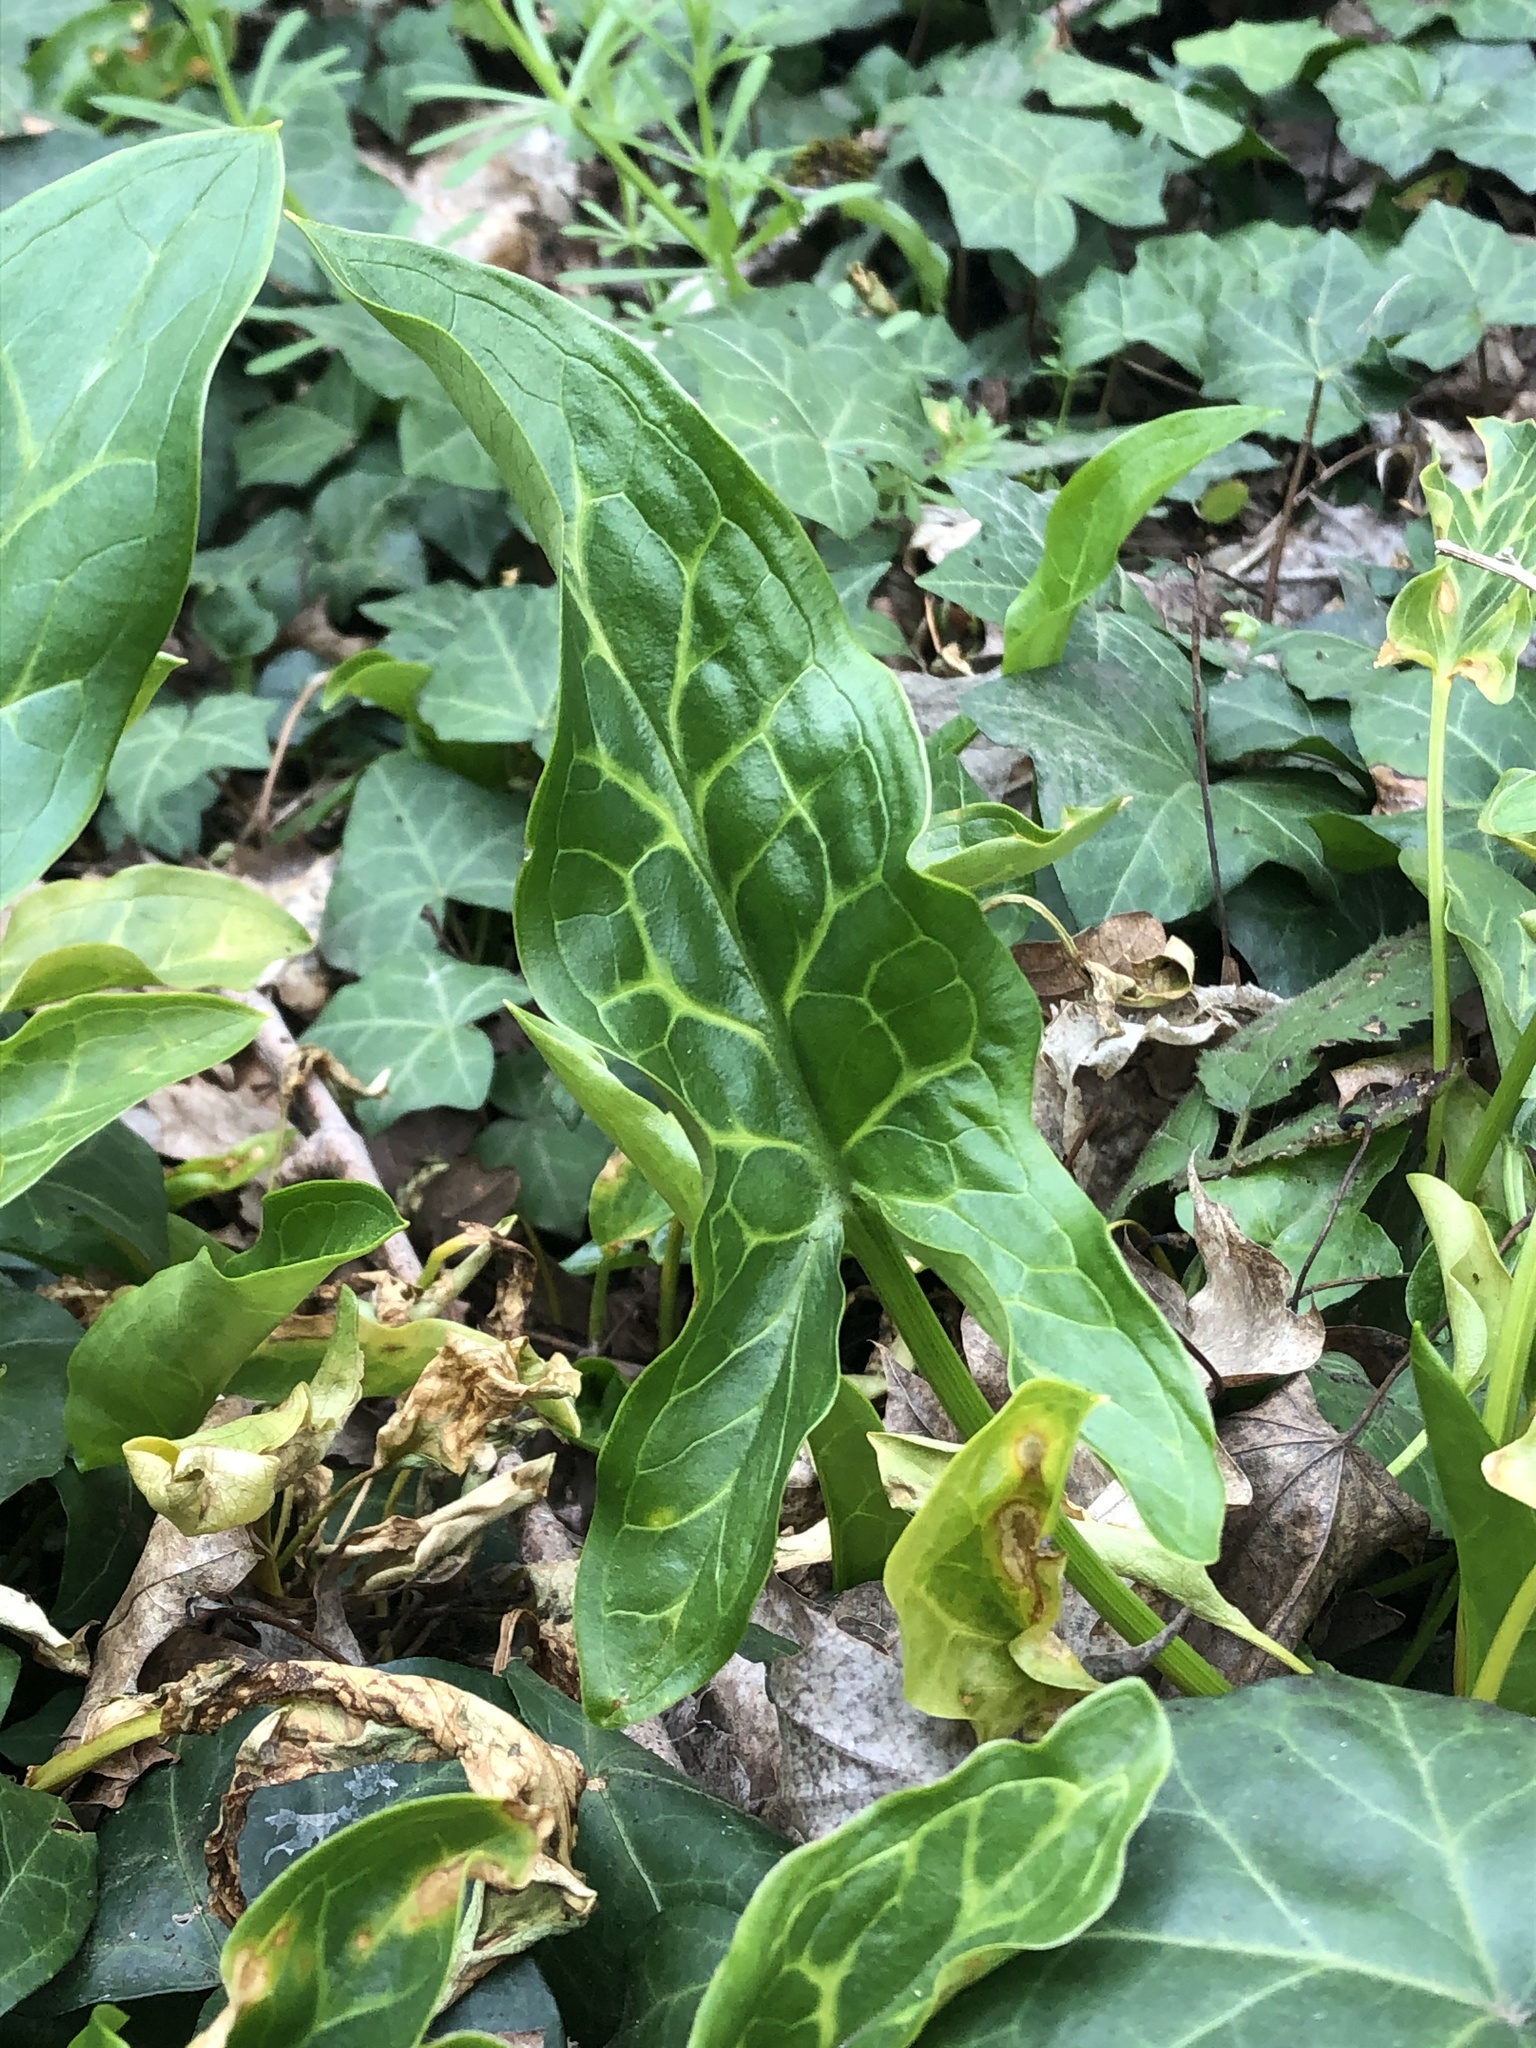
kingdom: Plantae
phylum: Tracheophyta
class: Liliopsida
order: Alismatales
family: Araceae
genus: Arum
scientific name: Arum italicum
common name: Italian lords-and-ladies
